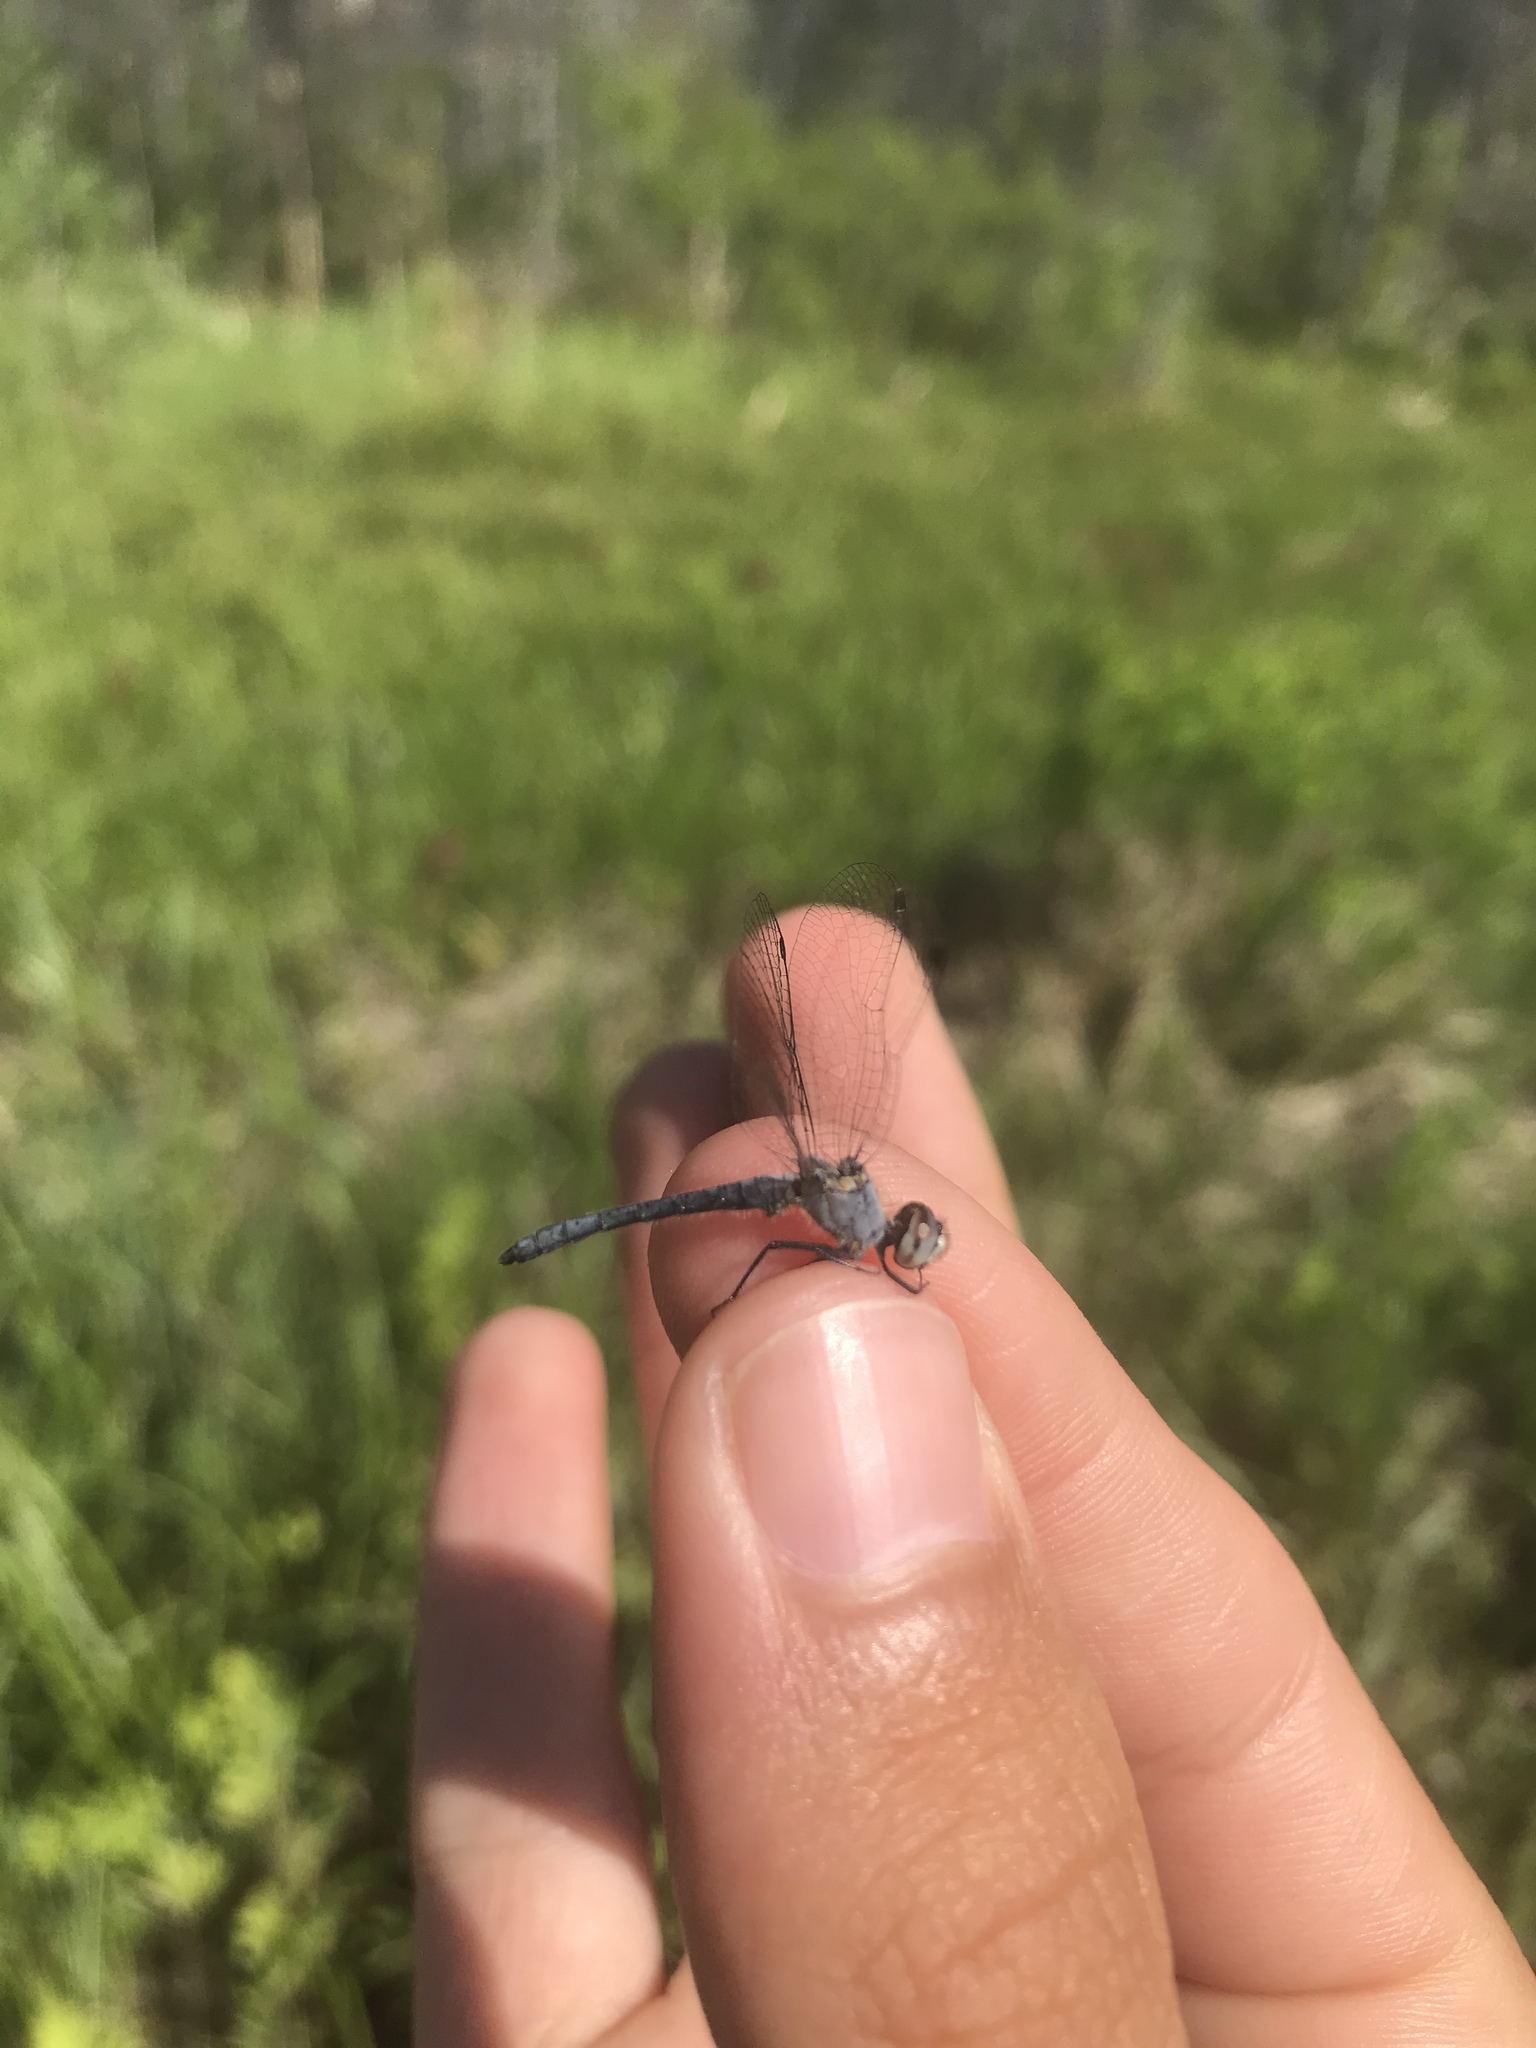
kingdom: Animalia
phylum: Arthropoda
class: Insecta
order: Odonata
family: Libellulidae
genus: Nannothemis
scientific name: Nannothemis bella
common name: Elfin skimmer
